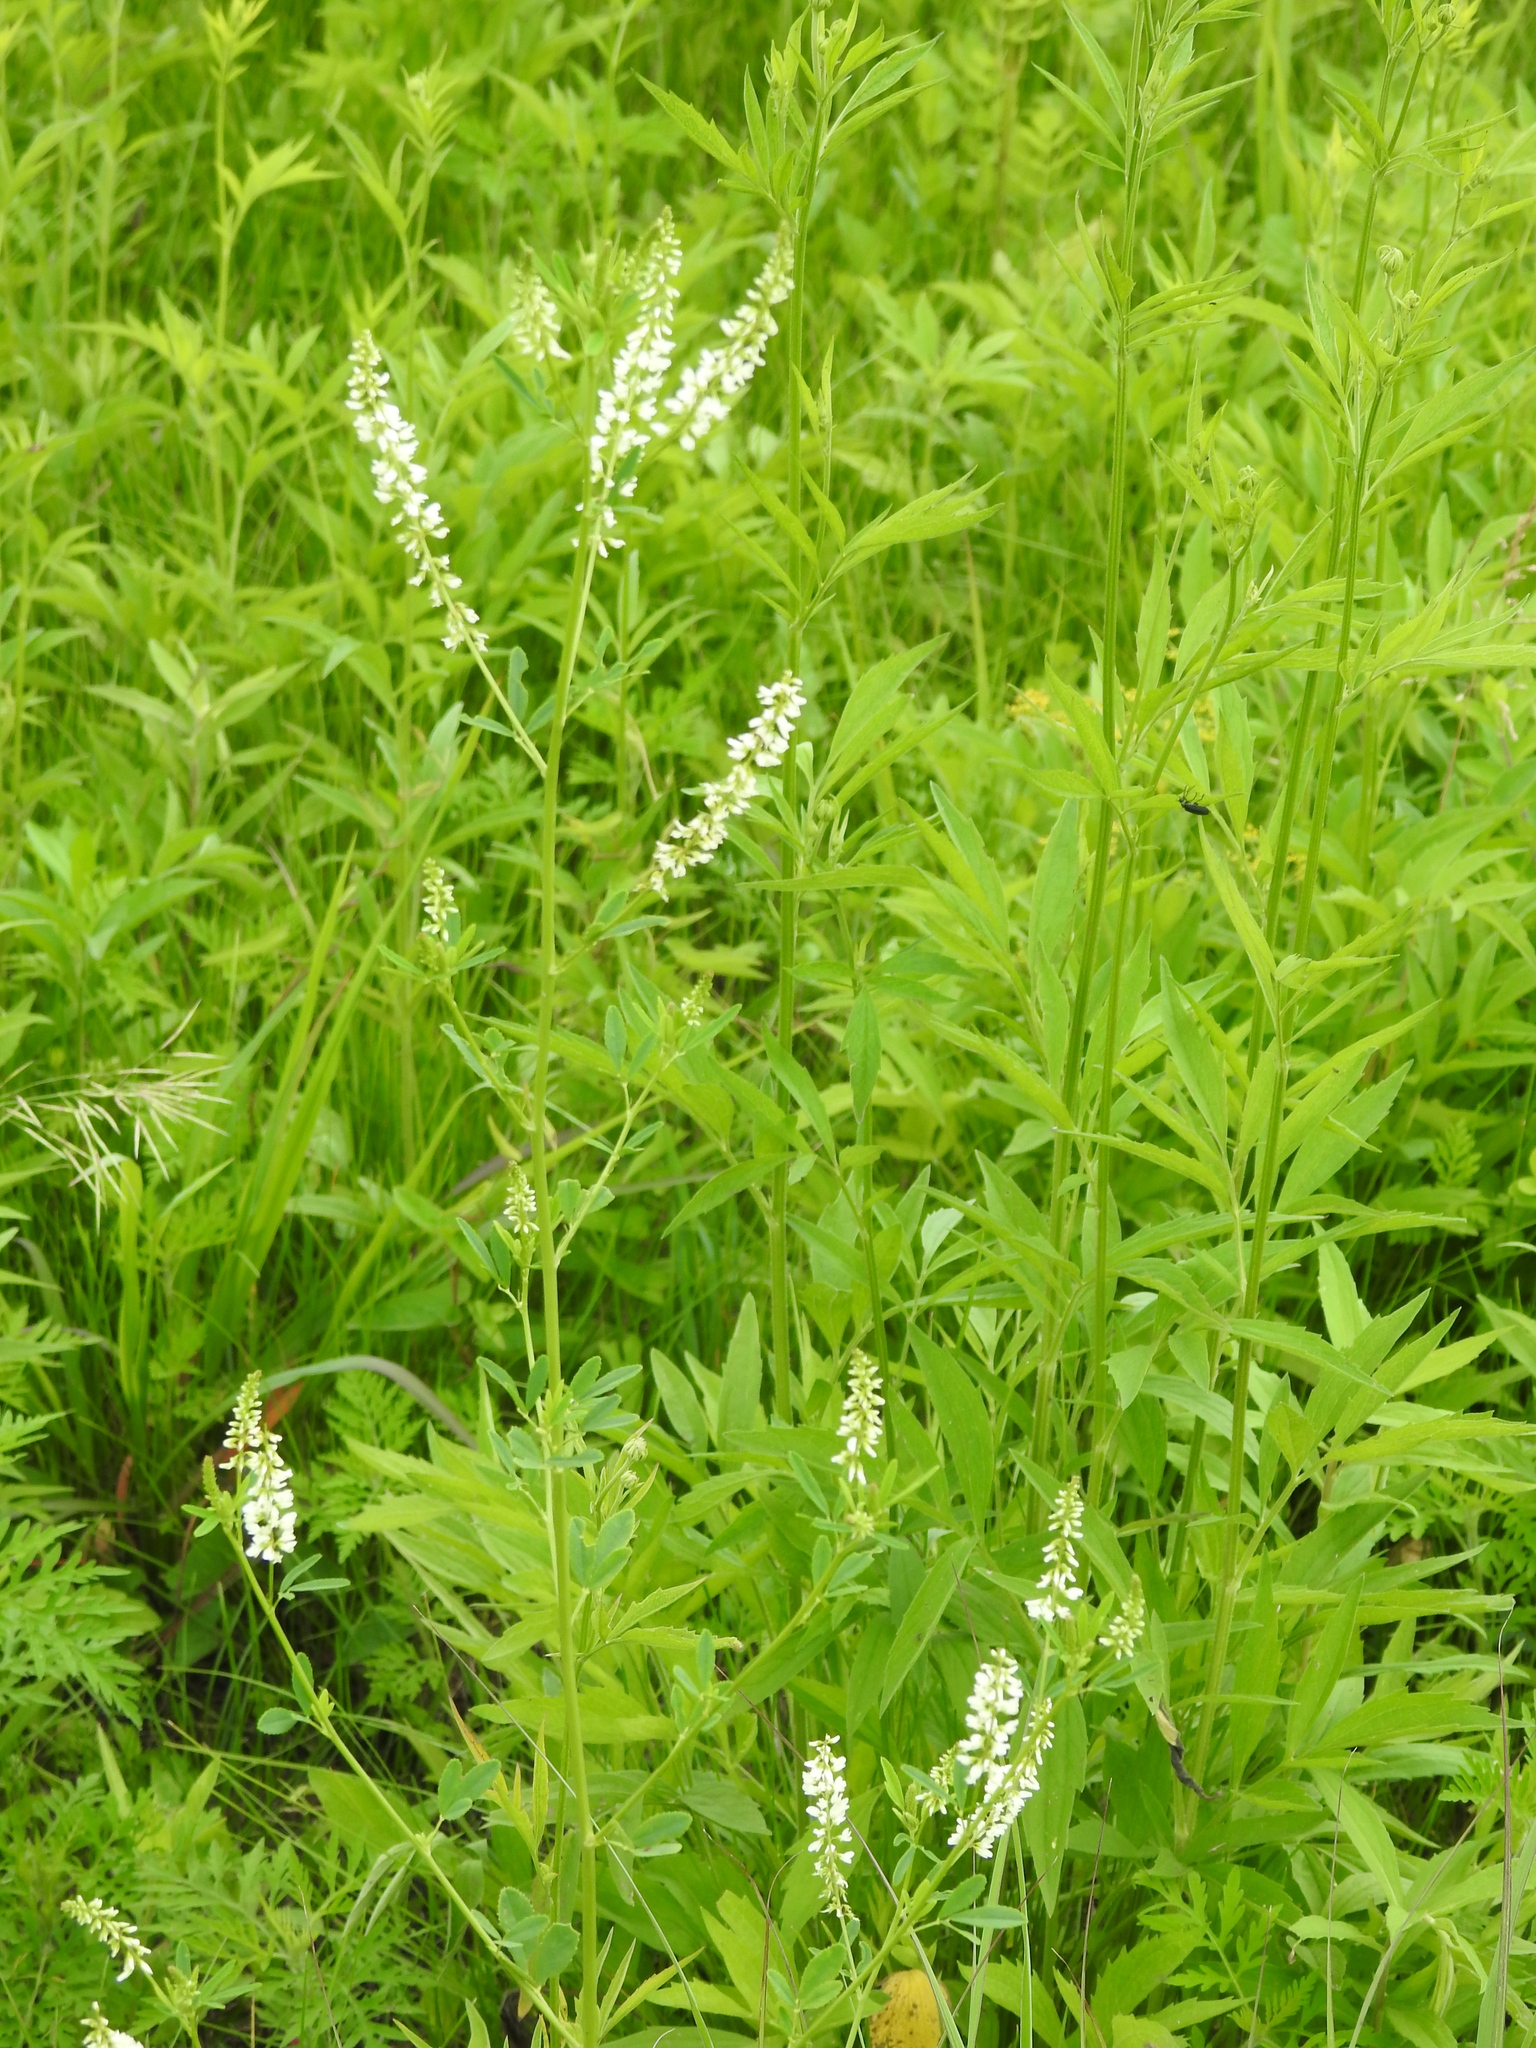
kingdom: Plantae
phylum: Tracheophyta
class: Magnoliopsida
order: Fabales
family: Fabaceae
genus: Melilotus
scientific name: Melilotus albus
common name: White melilot
